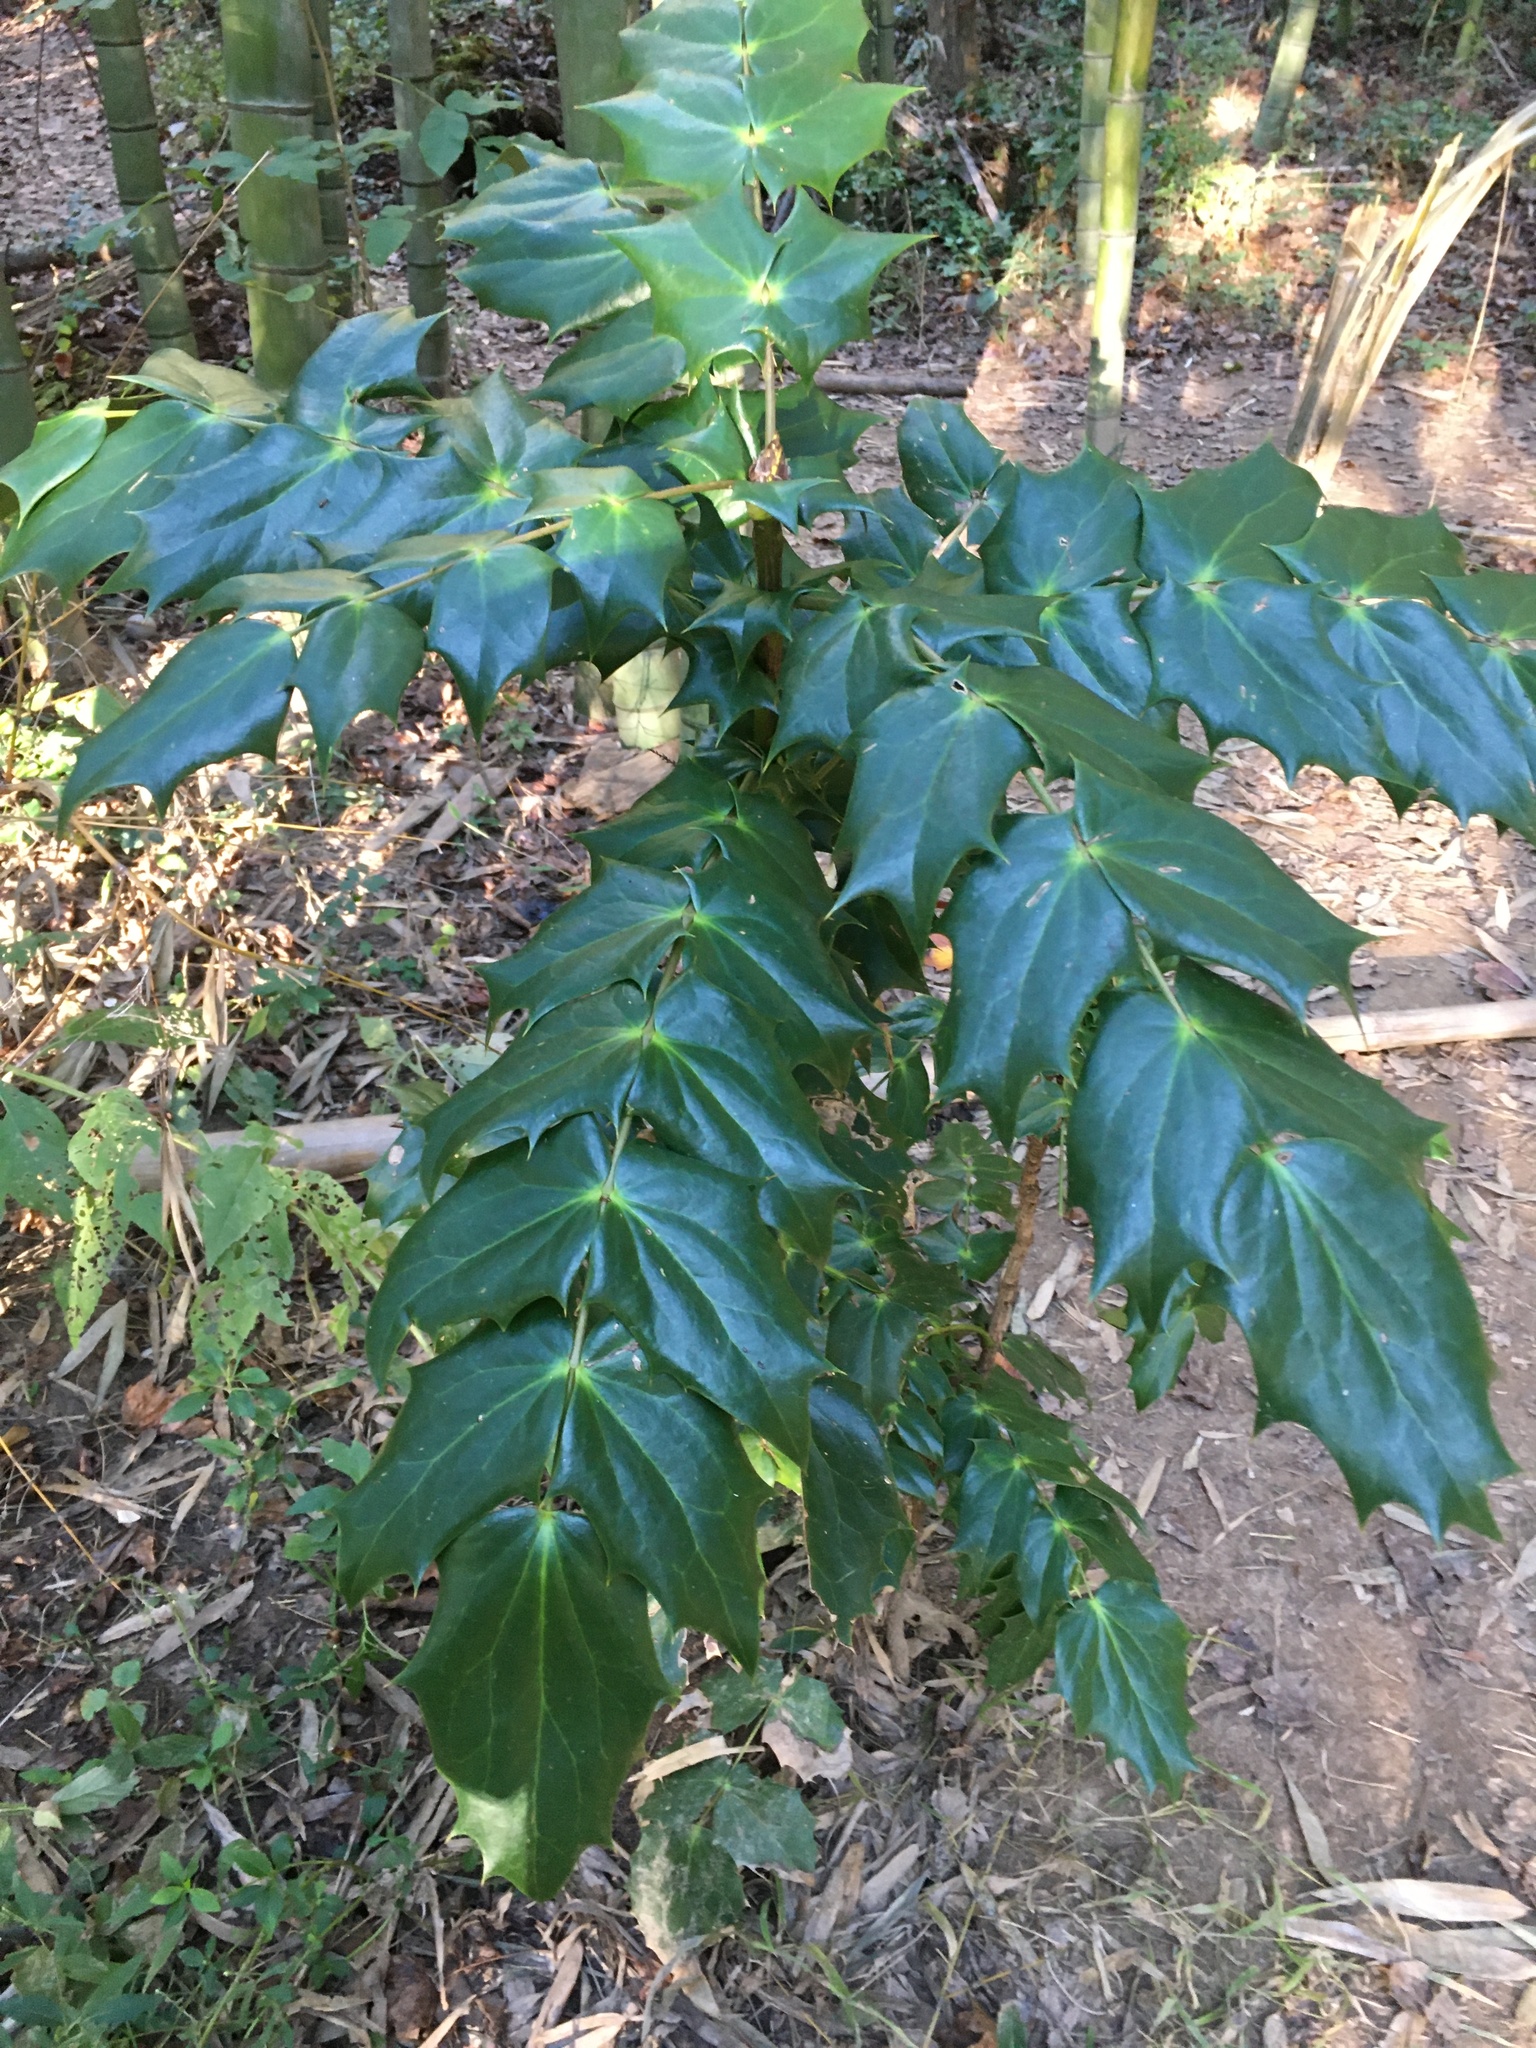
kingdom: Plantae
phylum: Tracheophyta
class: Magnoliopsida
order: Ranunculales
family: Berberidaceae
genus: Mahonia
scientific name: Mahonia bealei
